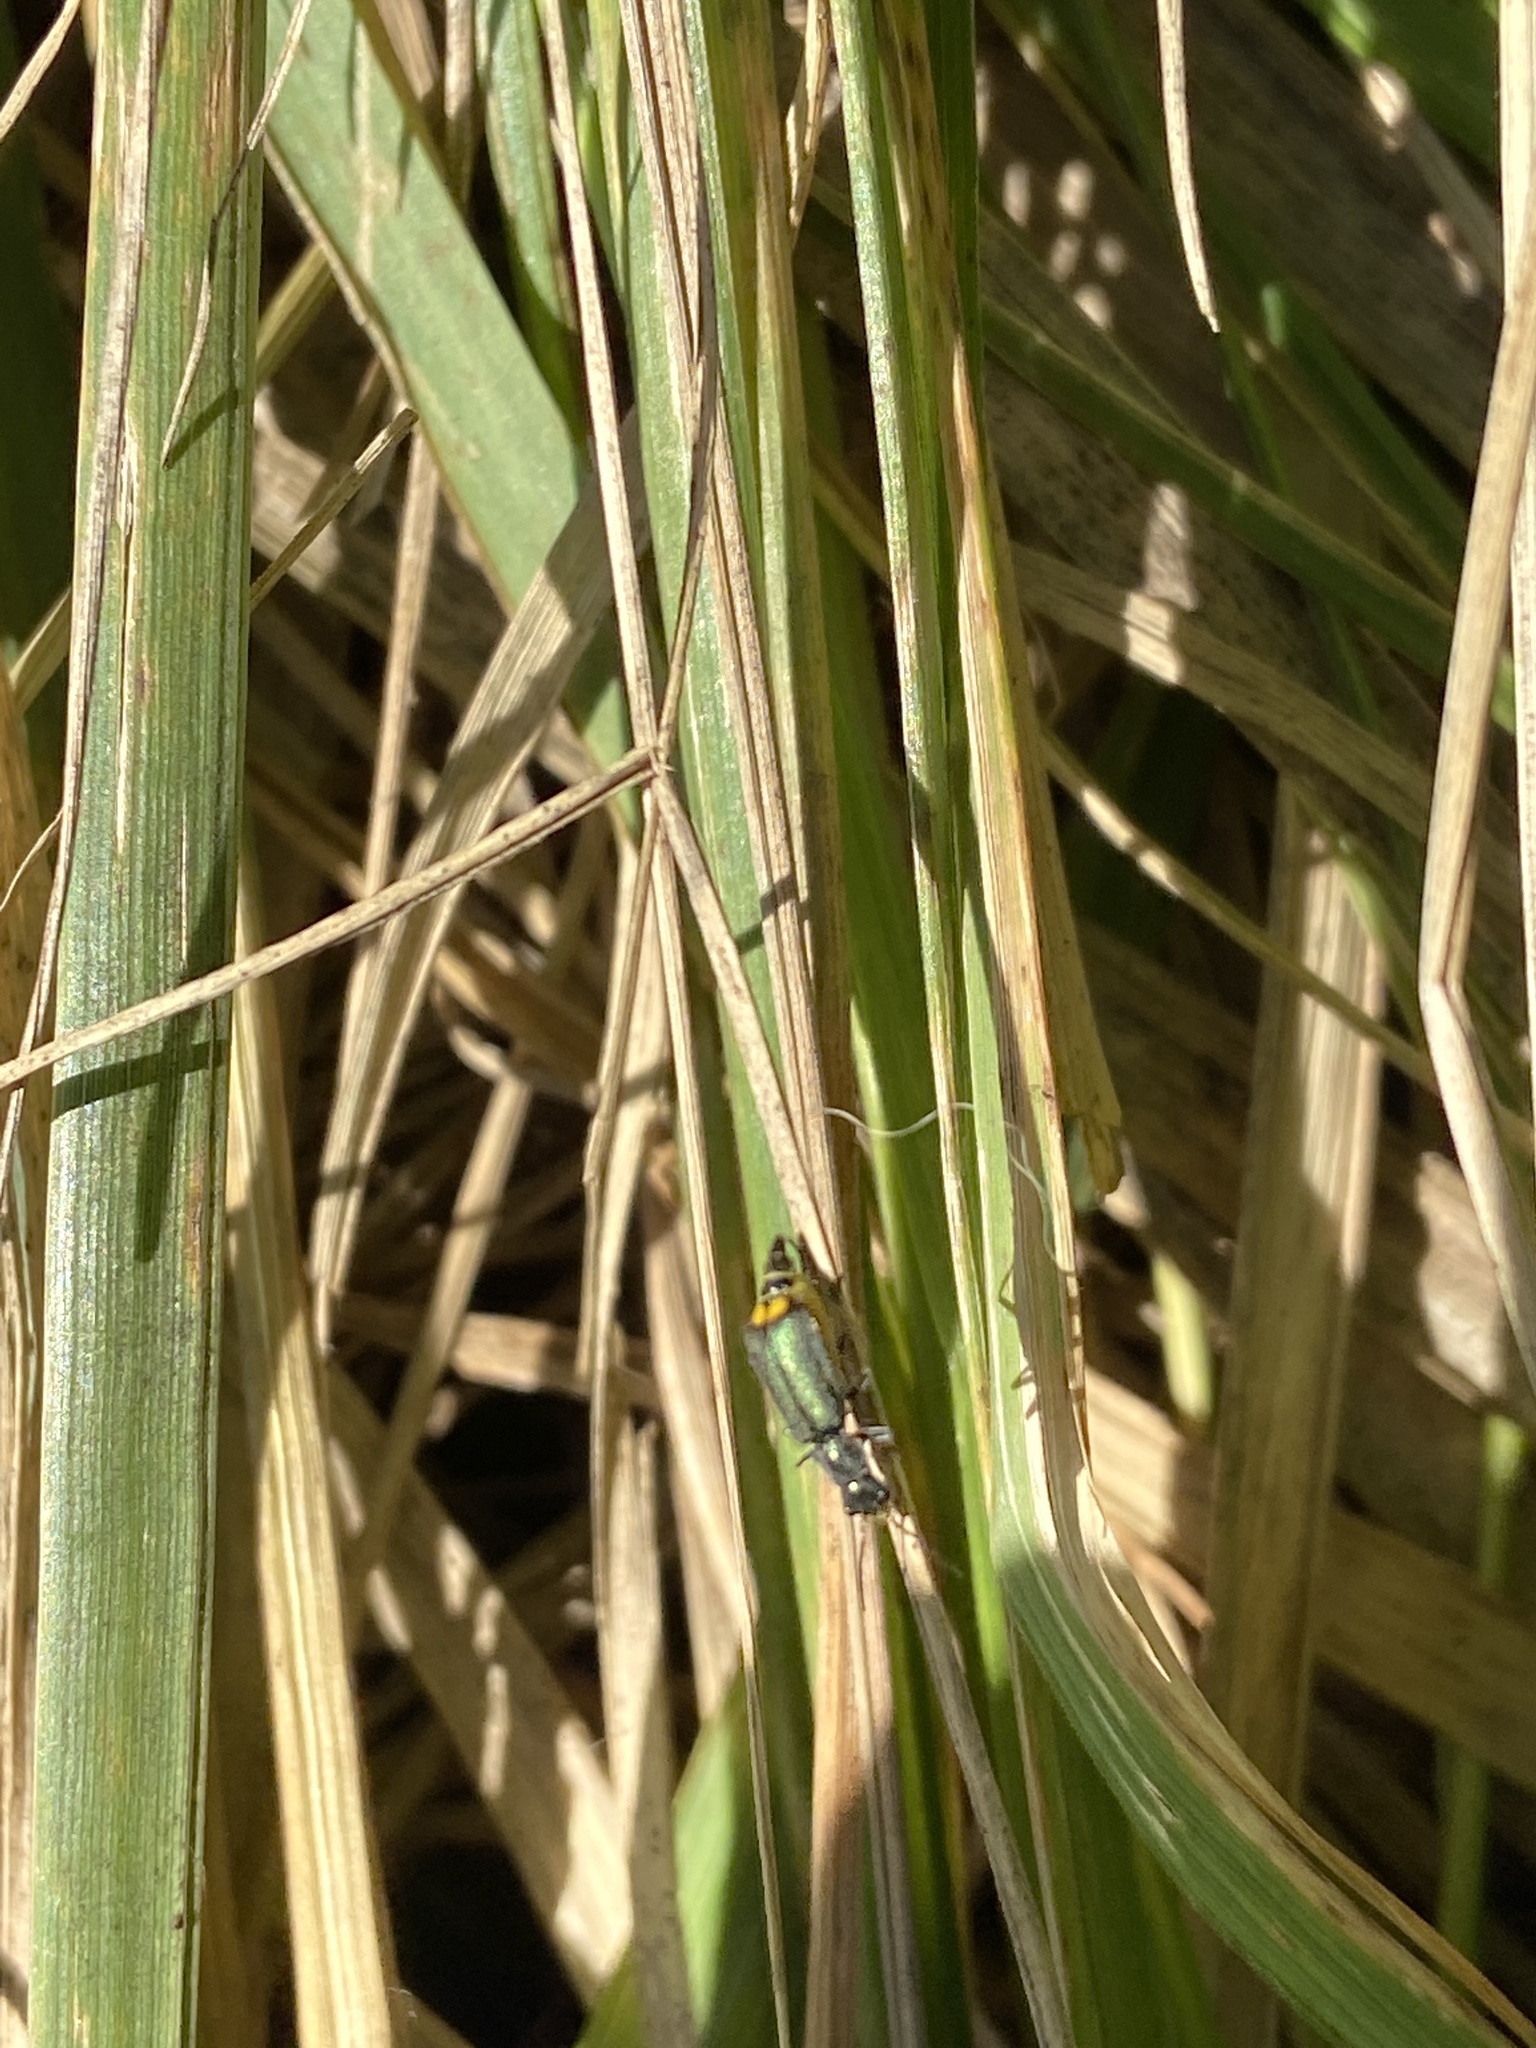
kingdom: Animalia
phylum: Arthropoda
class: Insecta
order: Coleoptera
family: Malachiidae
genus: Clanoptilus
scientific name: Clanoptilus marginellus
